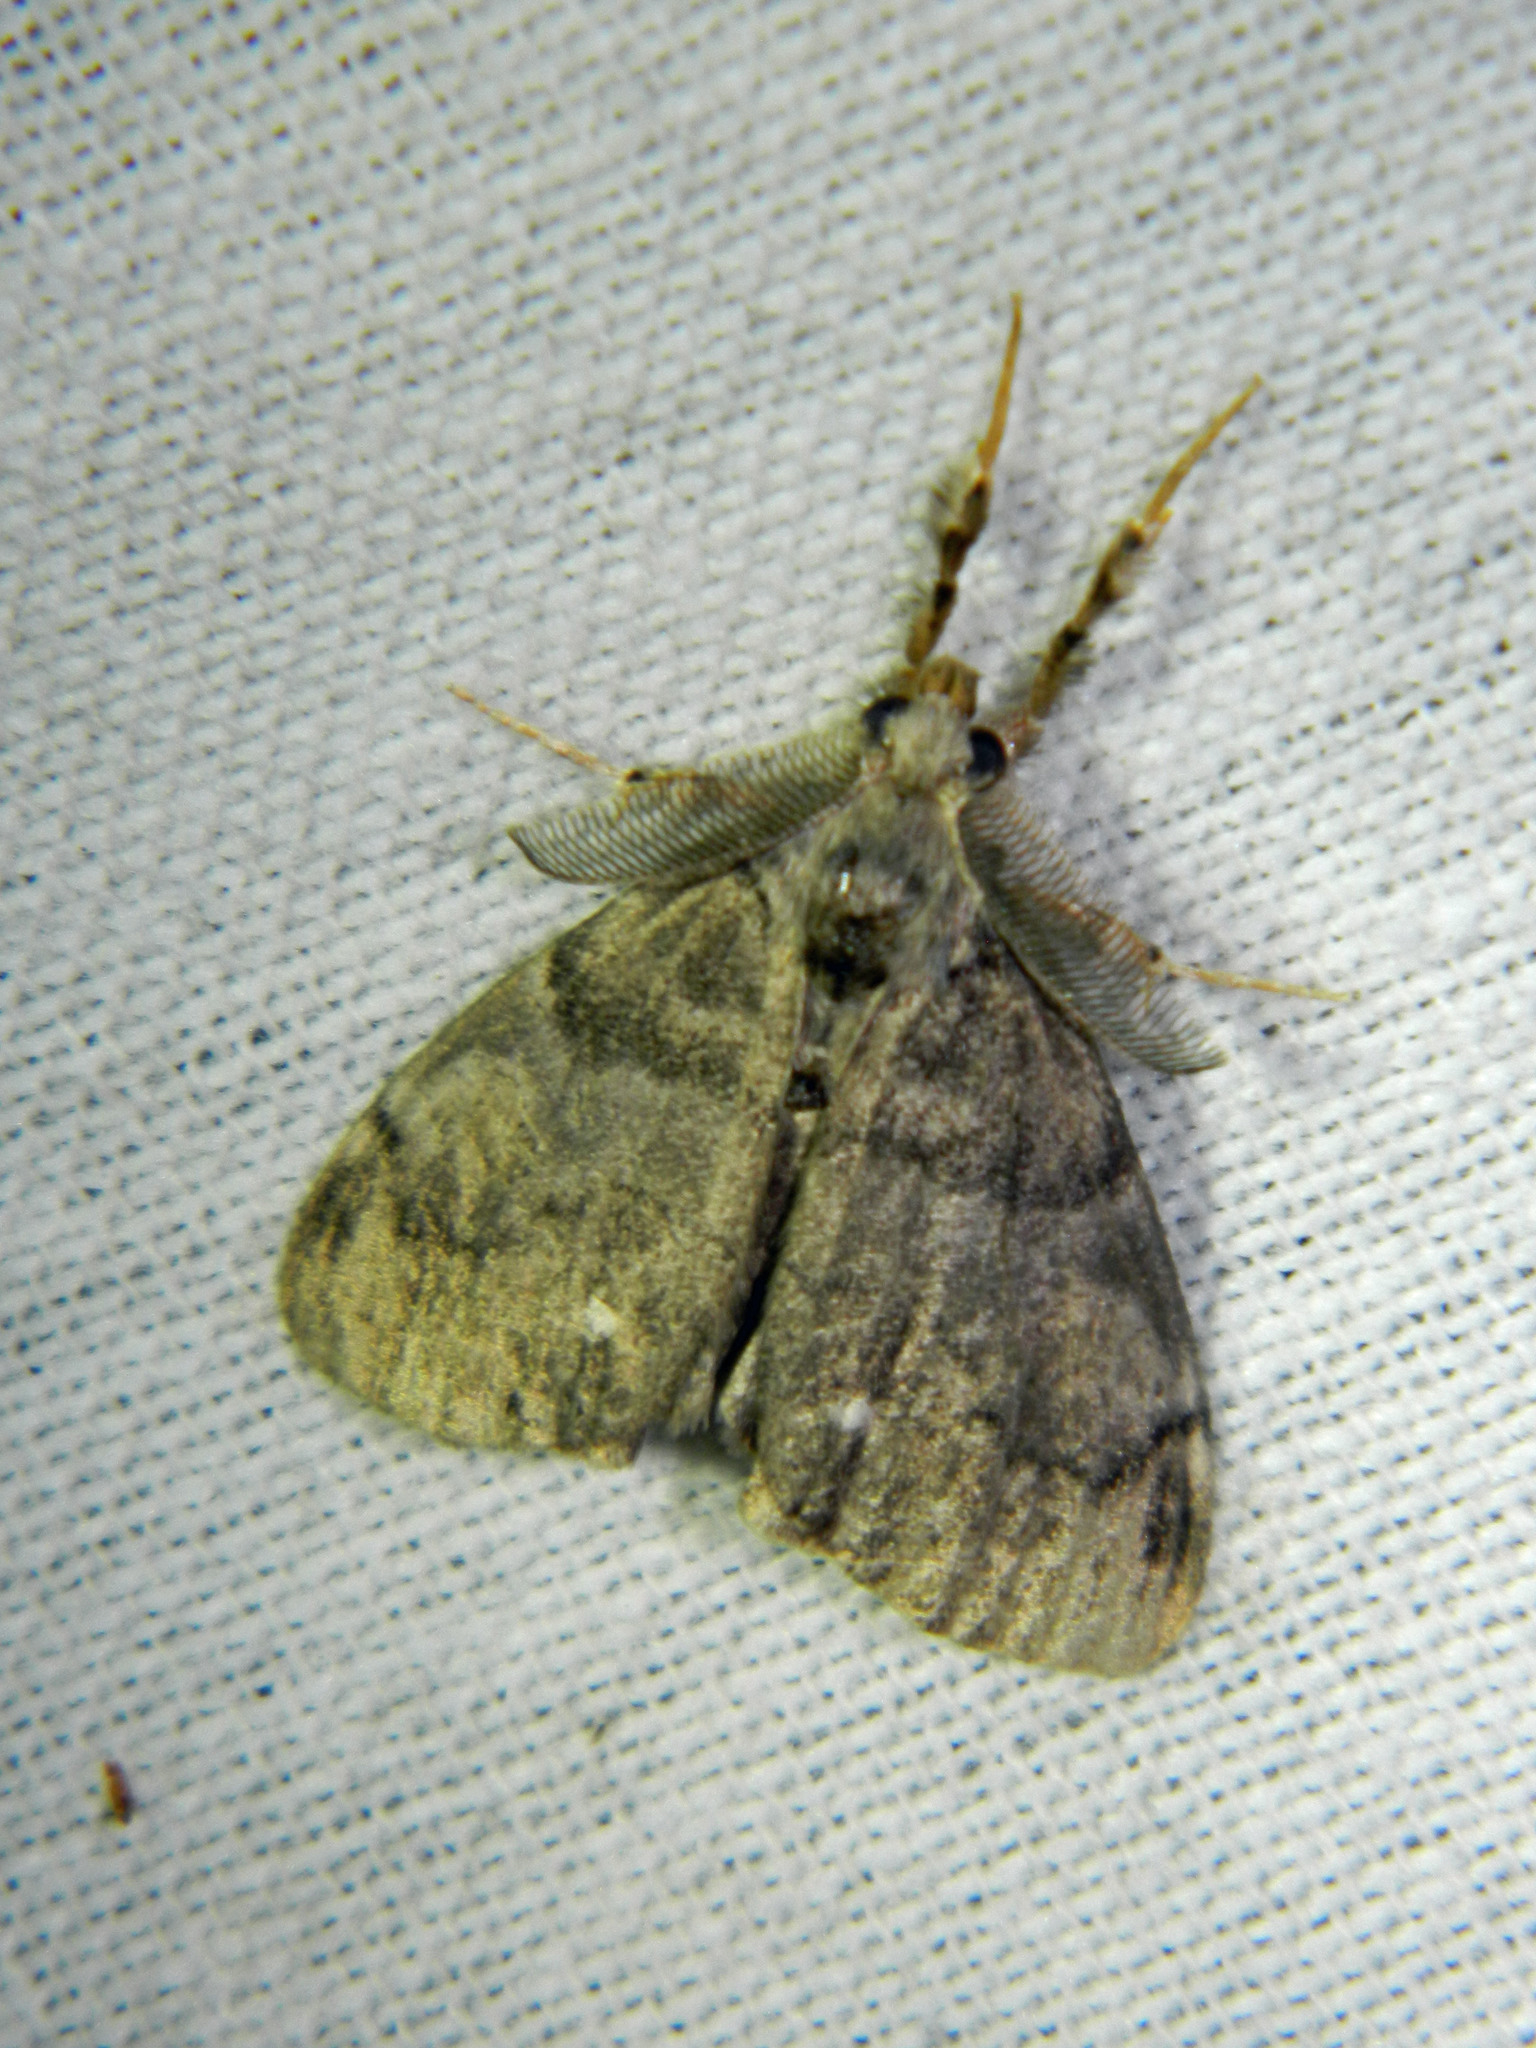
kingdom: Animalia
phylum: Arthropoda
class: Insecta
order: Lepidoptera
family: Erebidae
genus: Orgyia
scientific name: Orgyia leucostigma
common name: White-marked tussock moth
